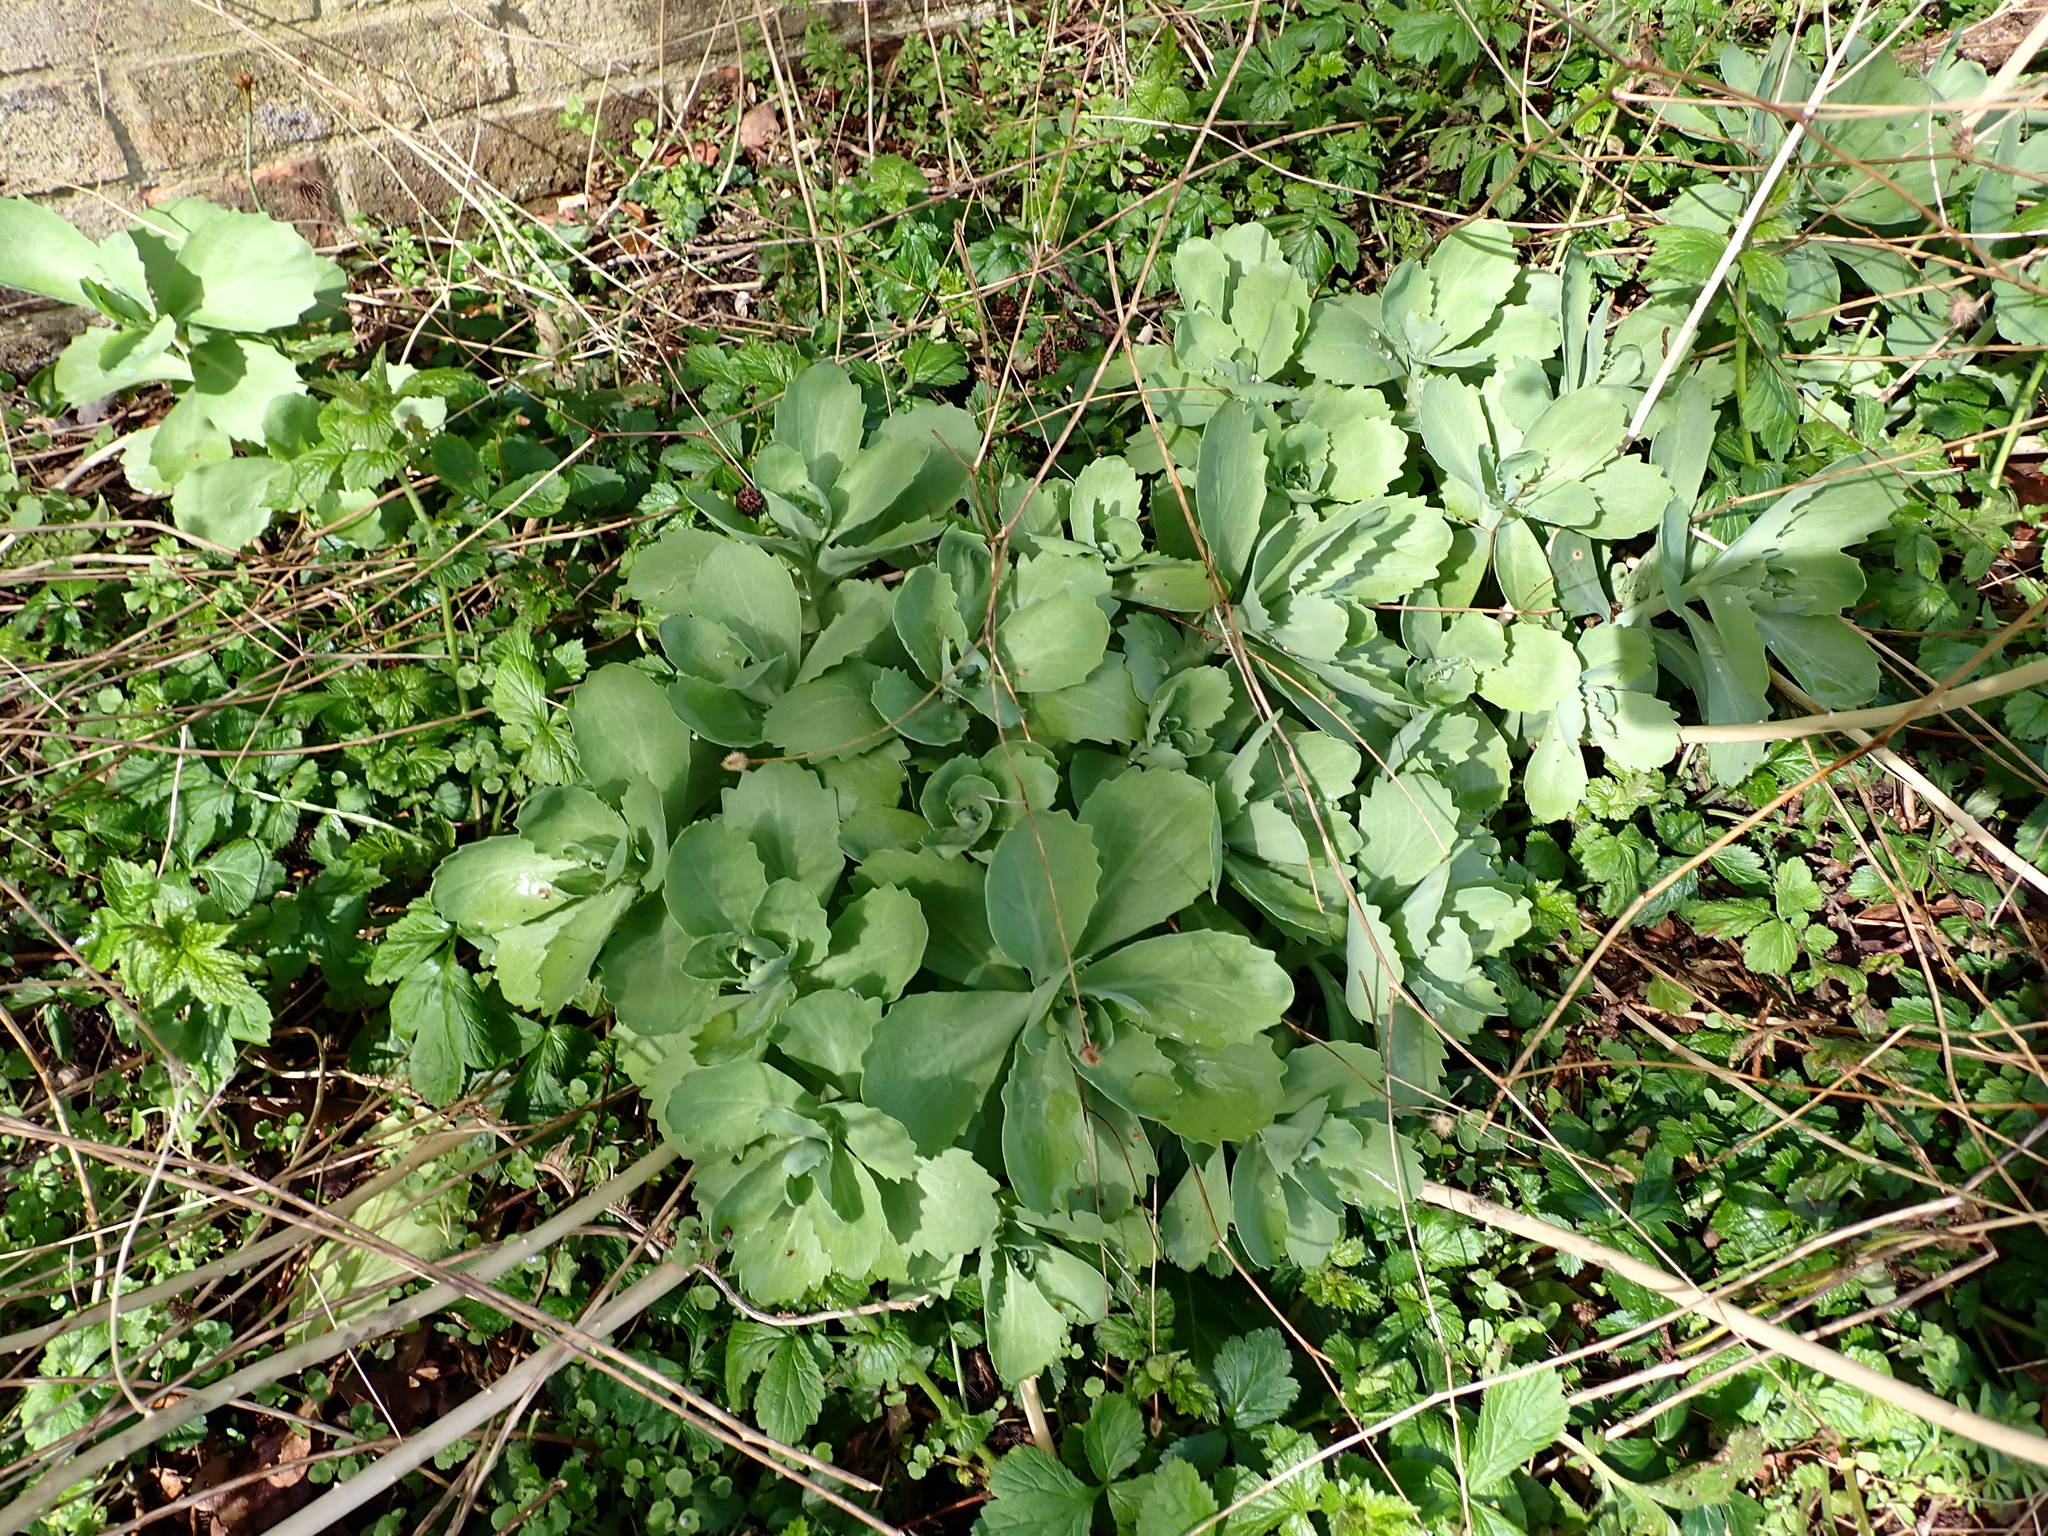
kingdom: Plantae
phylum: Tracheophyta
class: Magnoliopsida
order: Saxifragales
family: Crassulaceae
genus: Hylotelephium
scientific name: Hylotelephium
